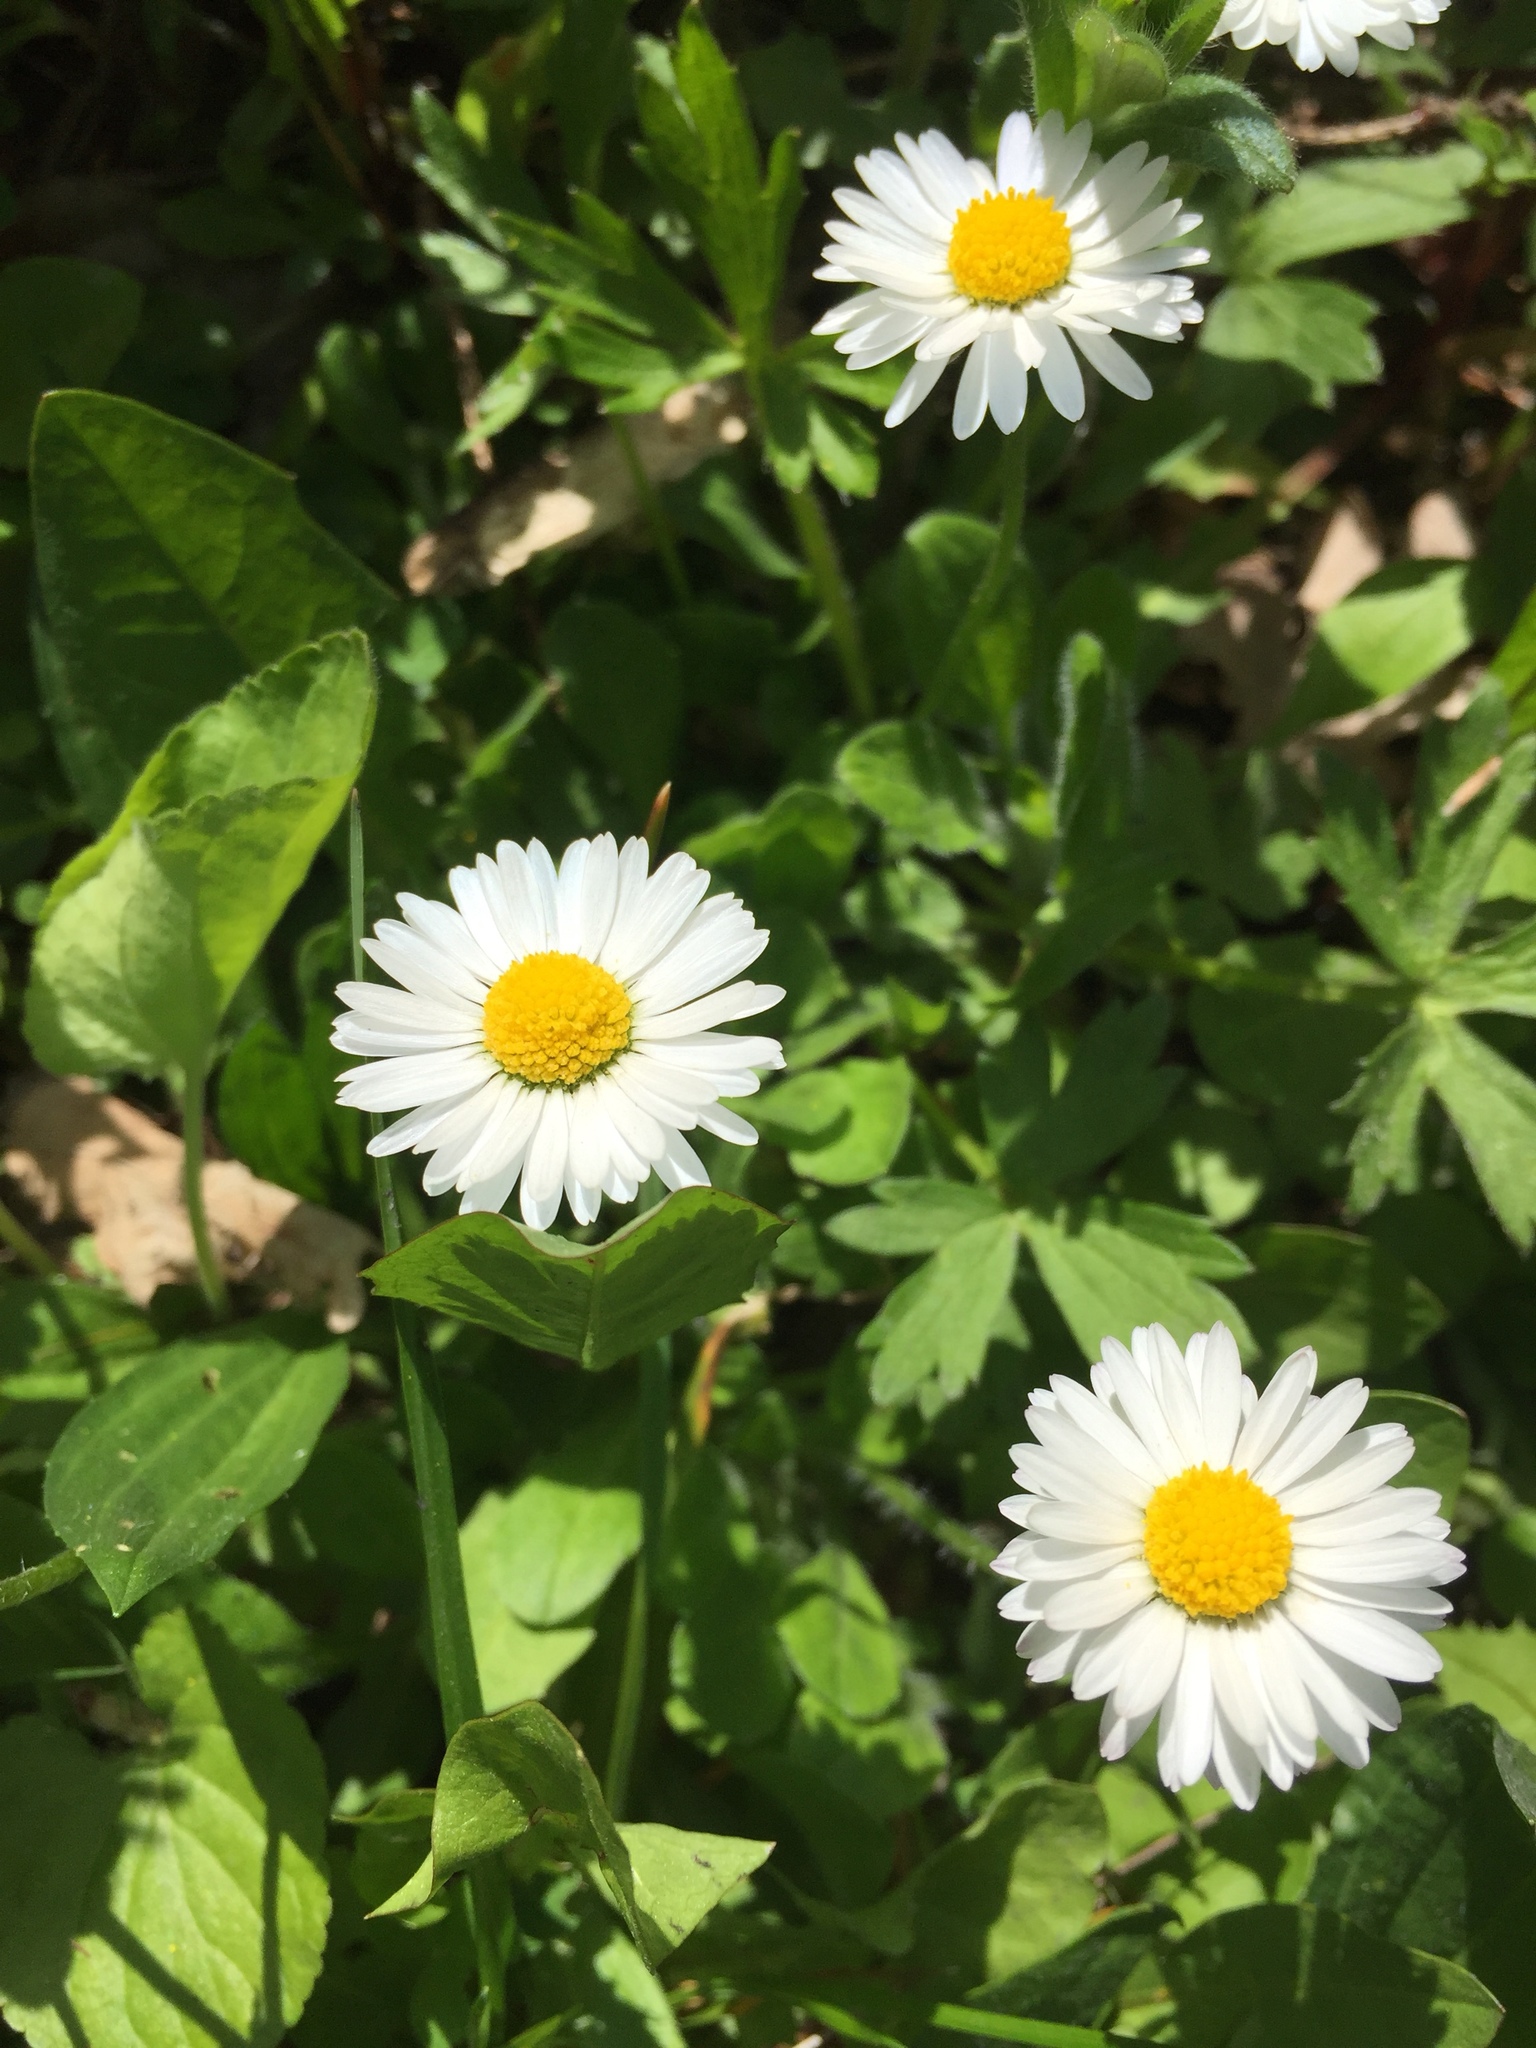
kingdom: Plantae
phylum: Tracheophyta
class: Magnoliopsida
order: Asterales
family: Asteraceae
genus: Bellis
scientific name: Bellis perennis
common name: Lawndaisy
